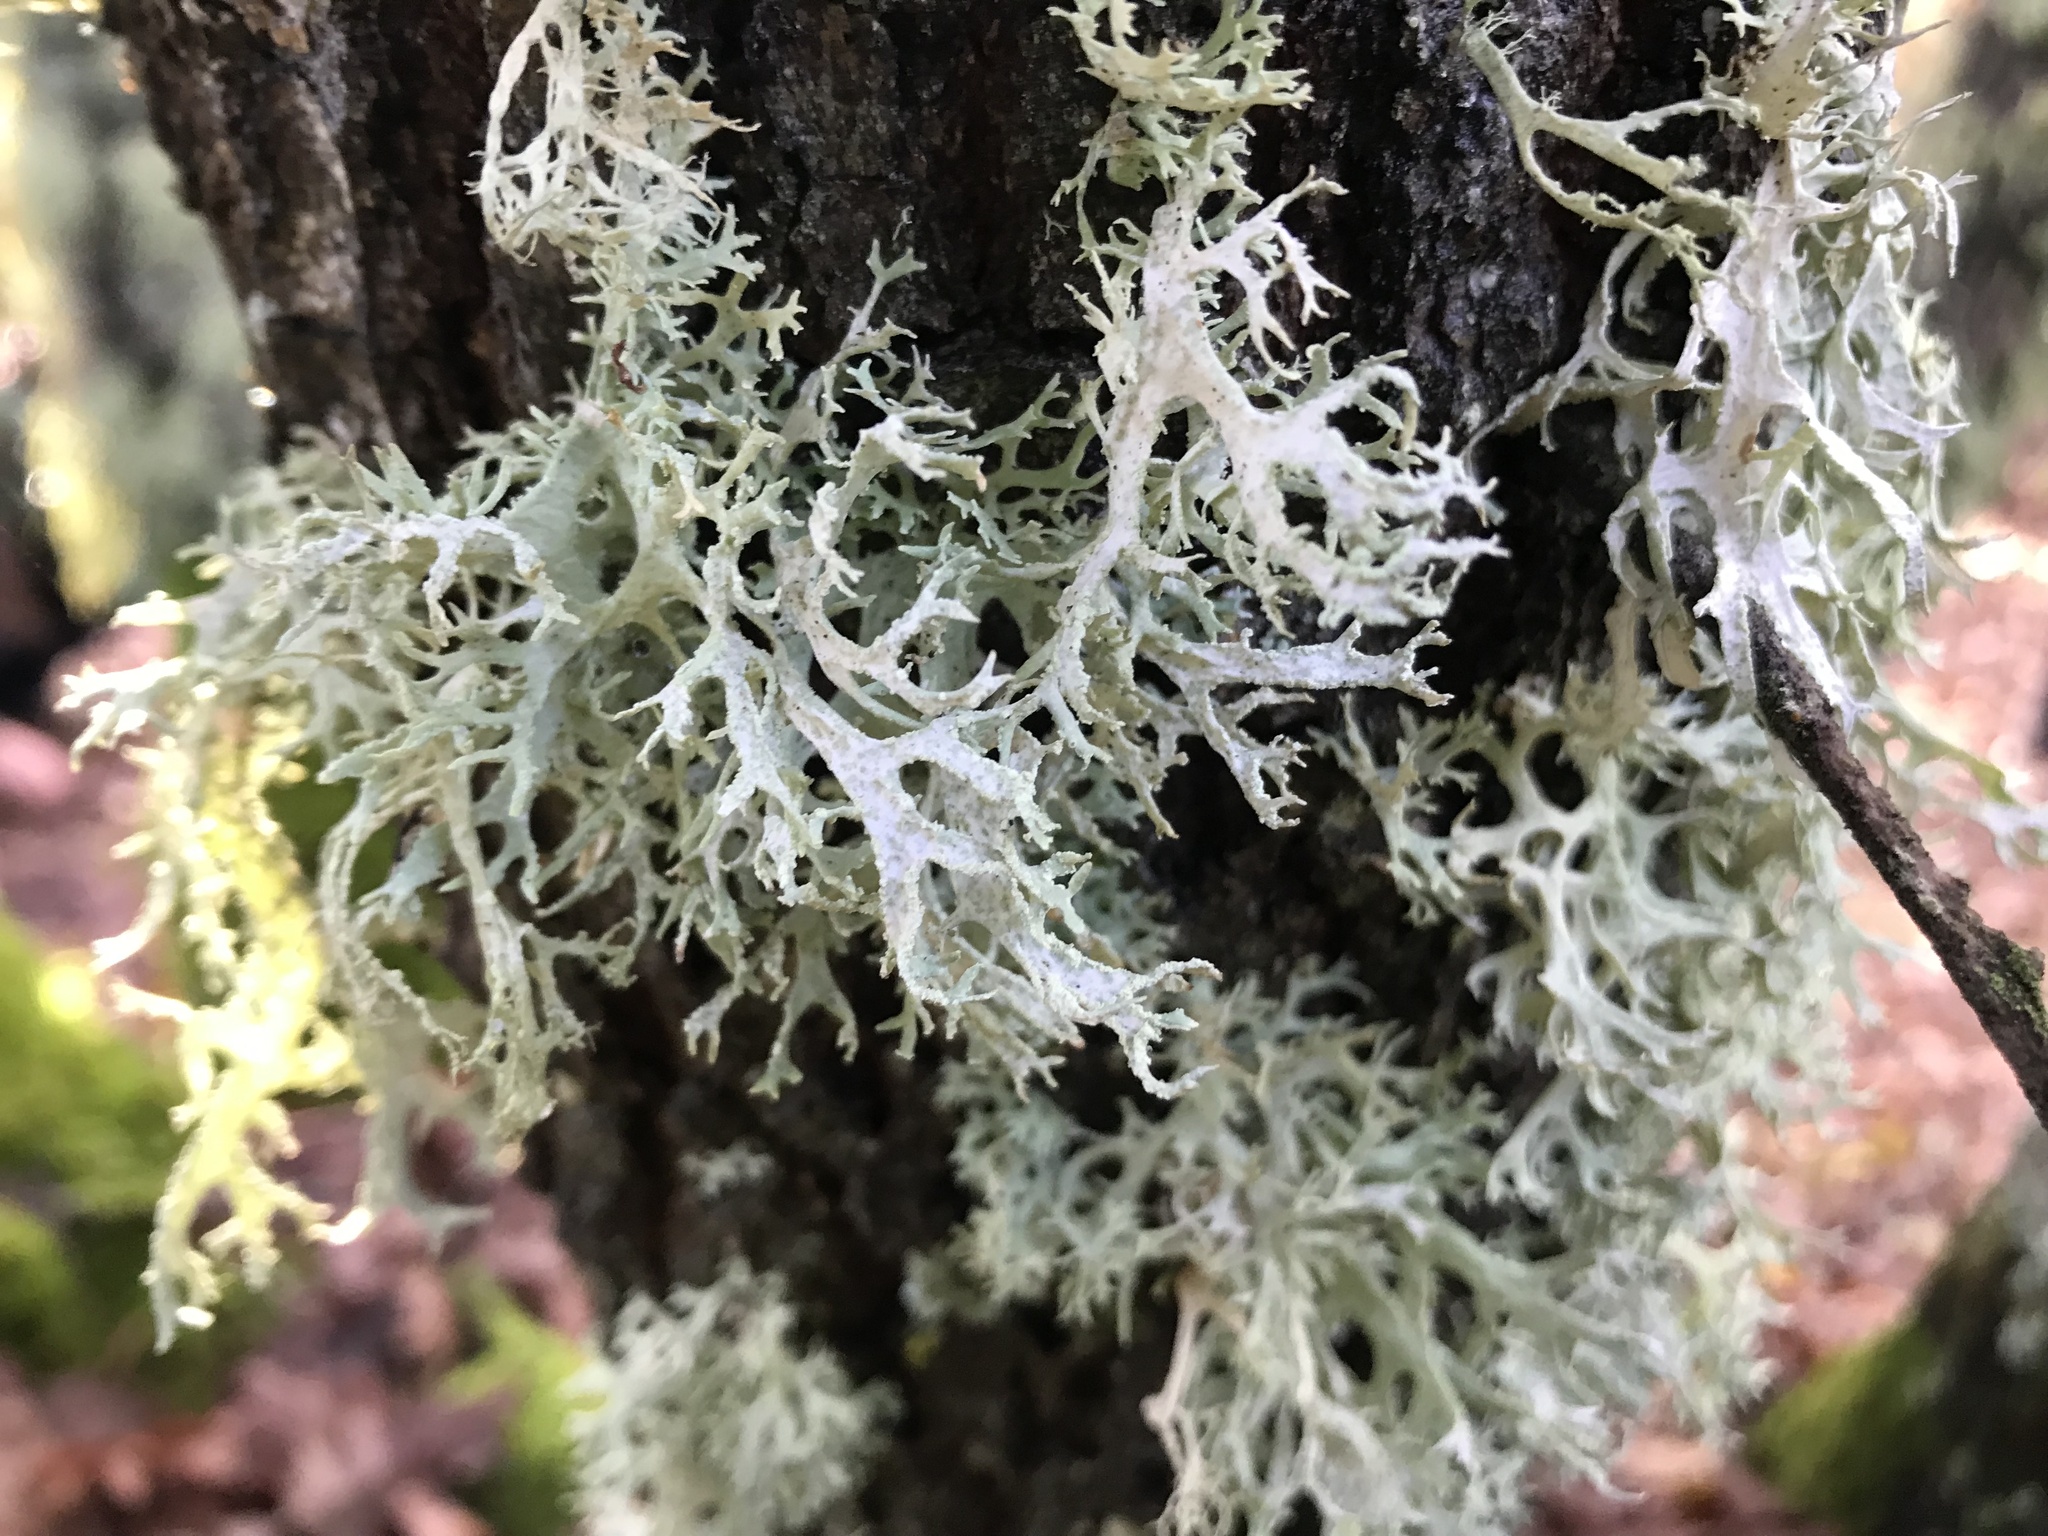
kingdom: Fungi
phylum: Ascomycota
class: Lecanoromycetes
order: Lecanorales
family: Parmeliaceae
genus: Evernia
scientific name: Evernia prunastri
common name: Oak moss
